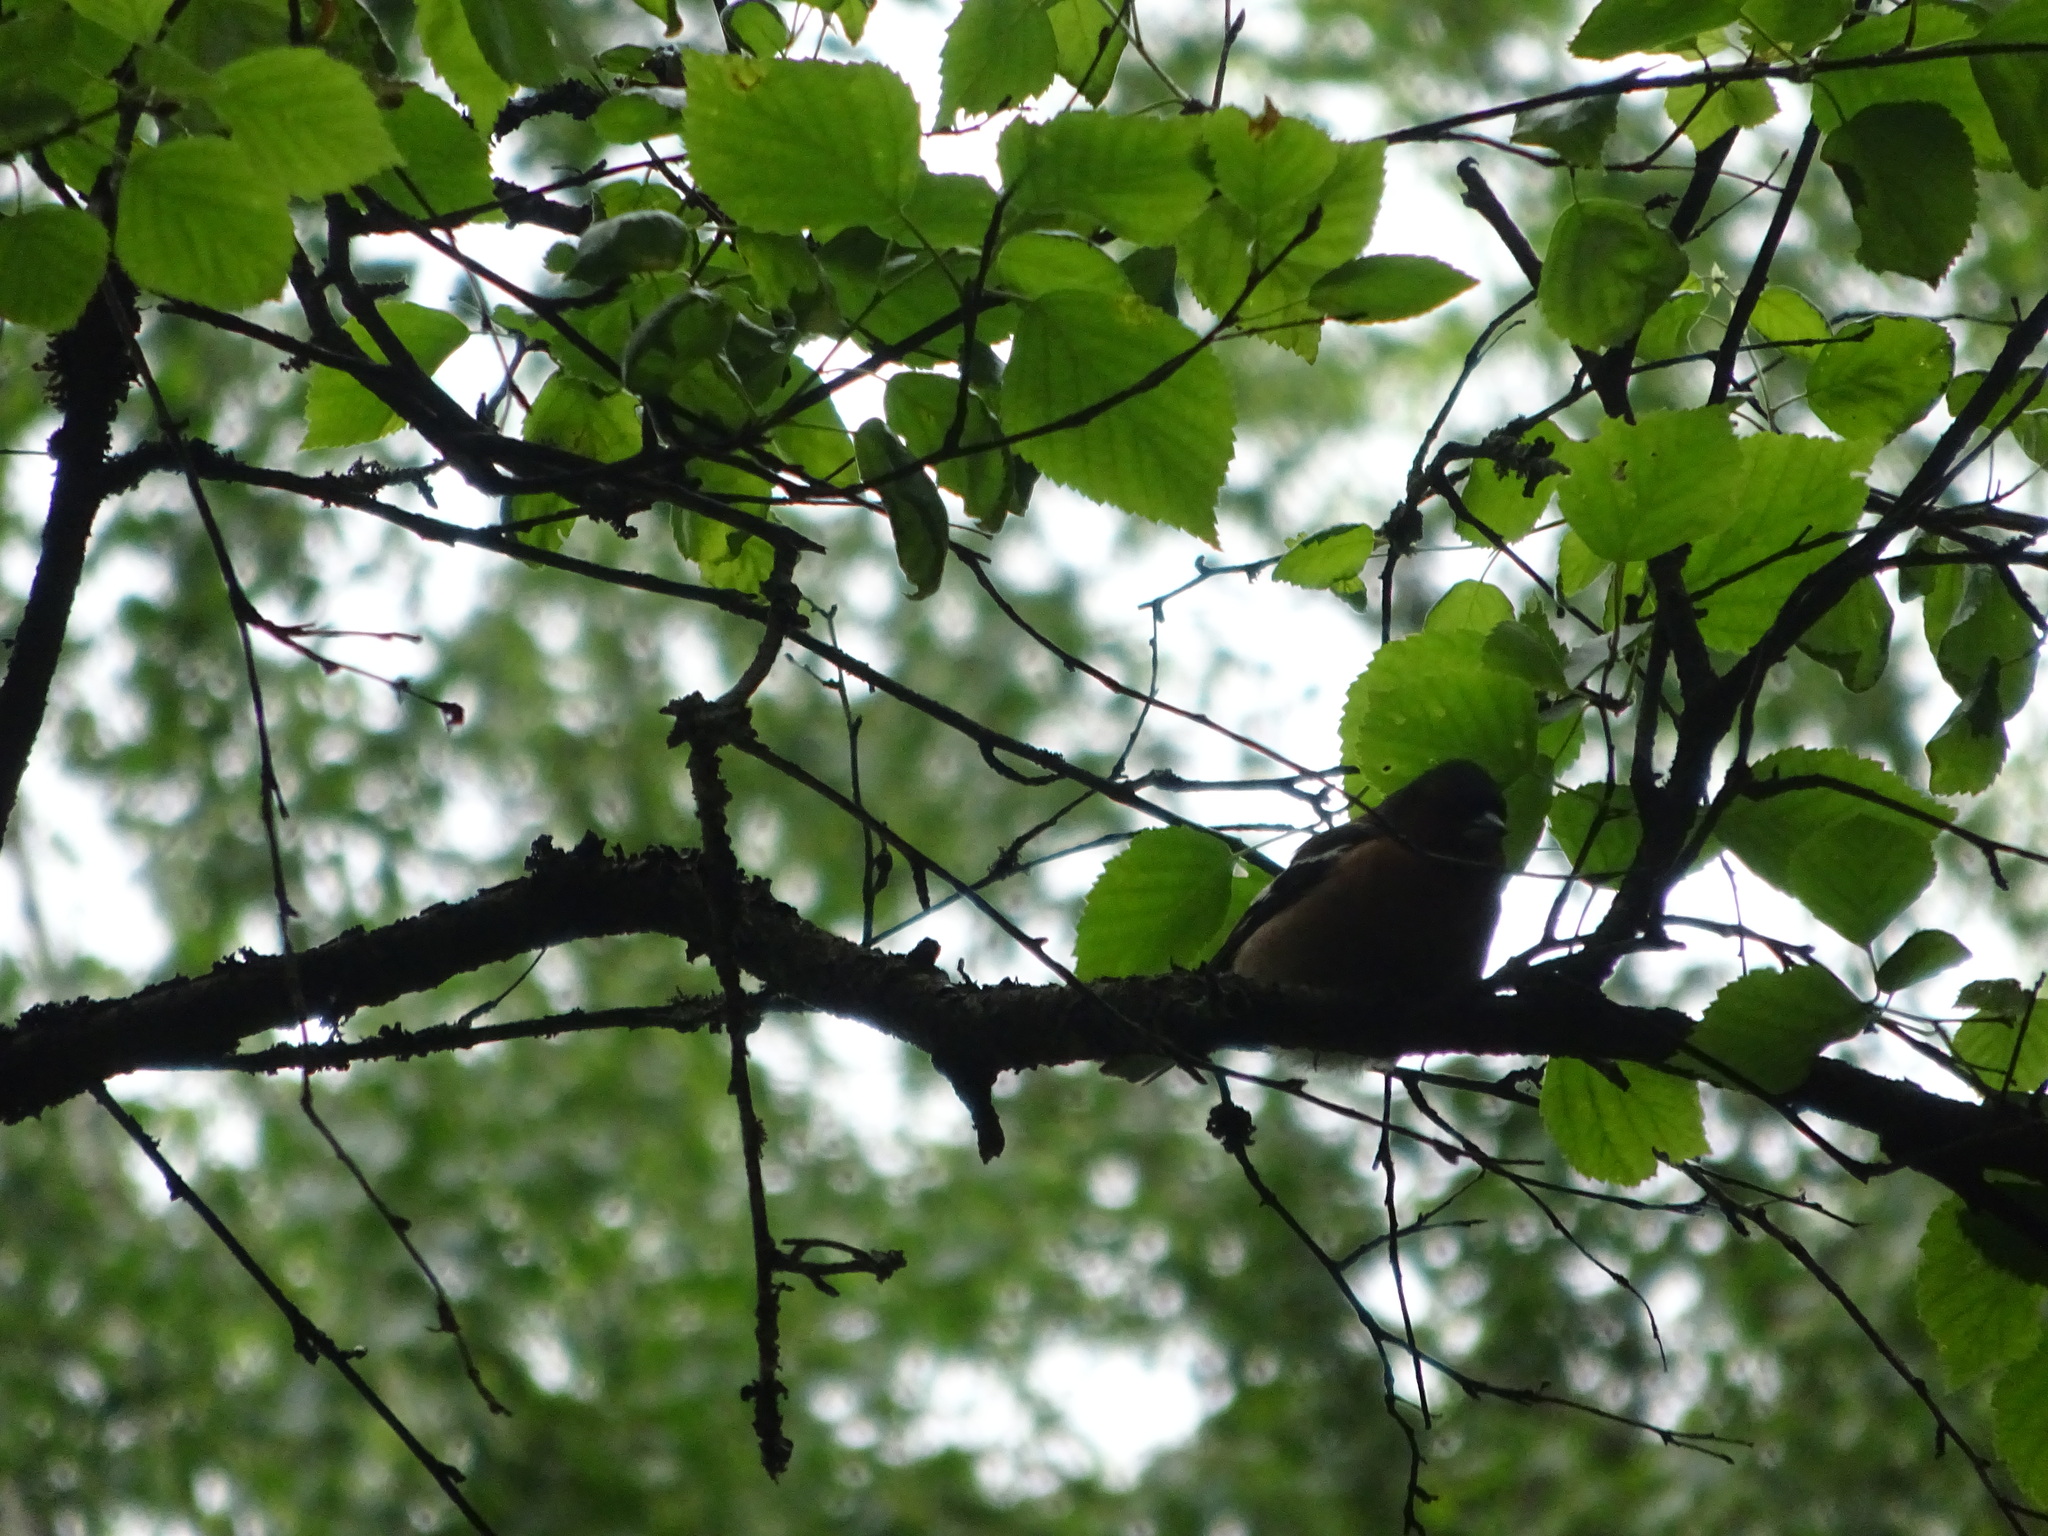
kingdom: Animalia
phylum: Chordata
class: Aves
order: Passeriformes
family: Fringillidae
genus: Fringilla
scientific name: Fringilla coelebs
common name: Common chaffinch
